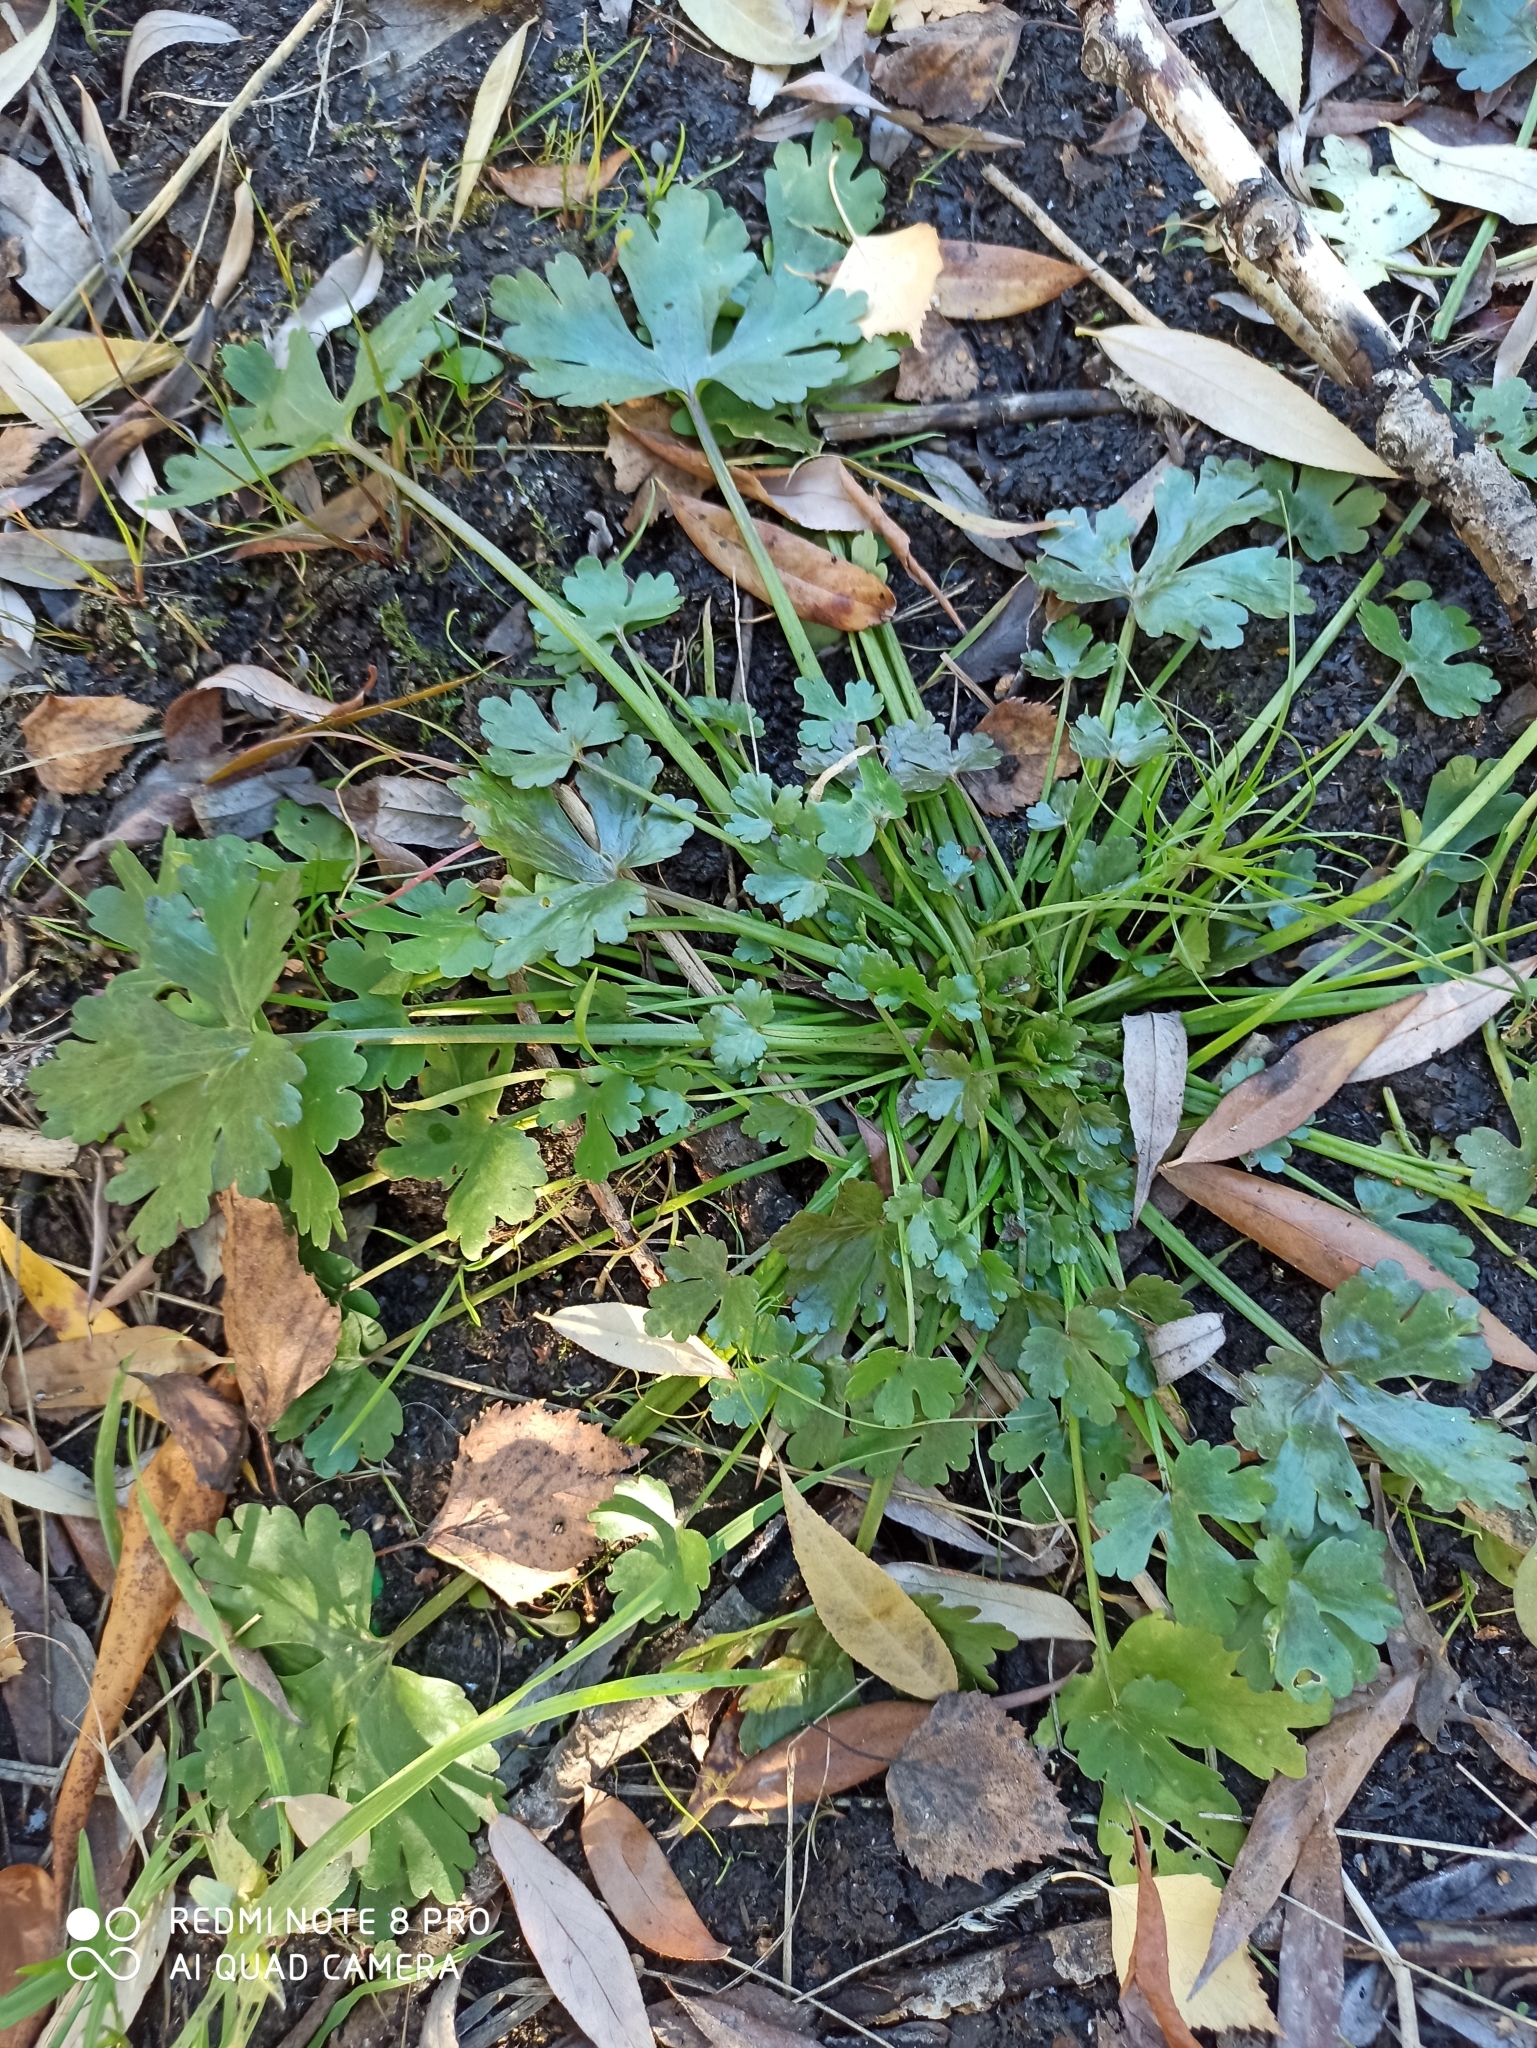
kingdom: Plantae
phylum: Tracheophyta
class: Magnoliopsida
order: Ranunculales
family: Ranunculaceae
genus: Ranunculus
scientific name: Ranunculus sceleratus
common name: Celery-leaved buttercup
